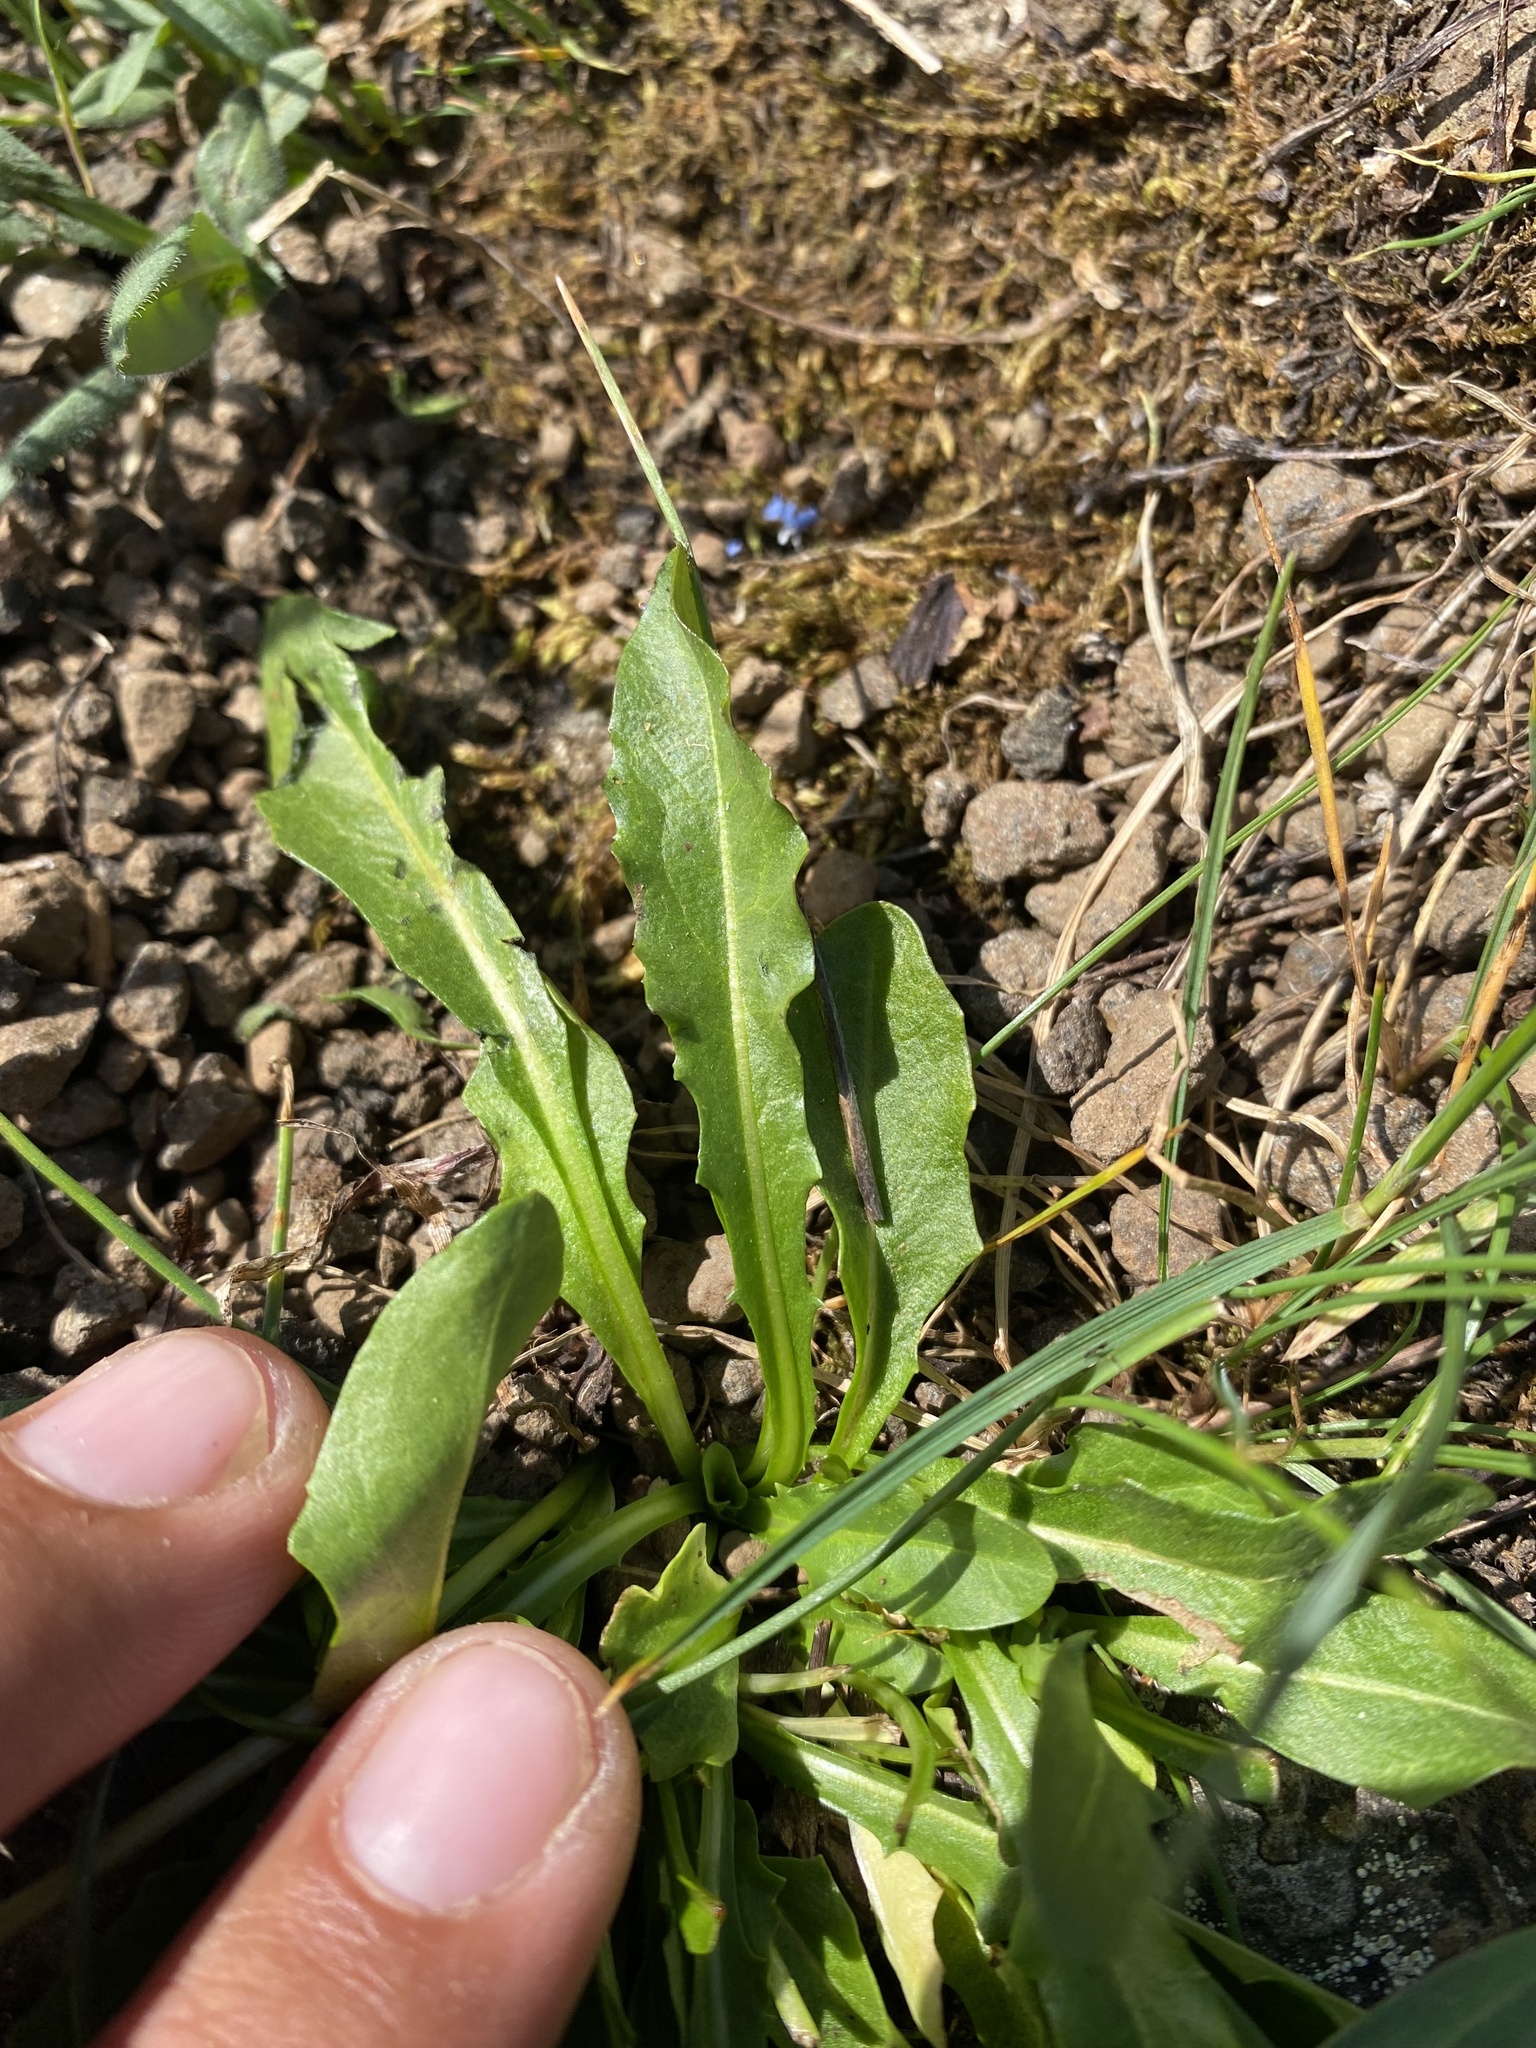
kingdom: Plantae
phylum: Tracheophyta
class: Magnoliopsida
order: Asterales
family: Asteraceae
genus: Taraxacum
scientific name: Taraxacum glabrum
